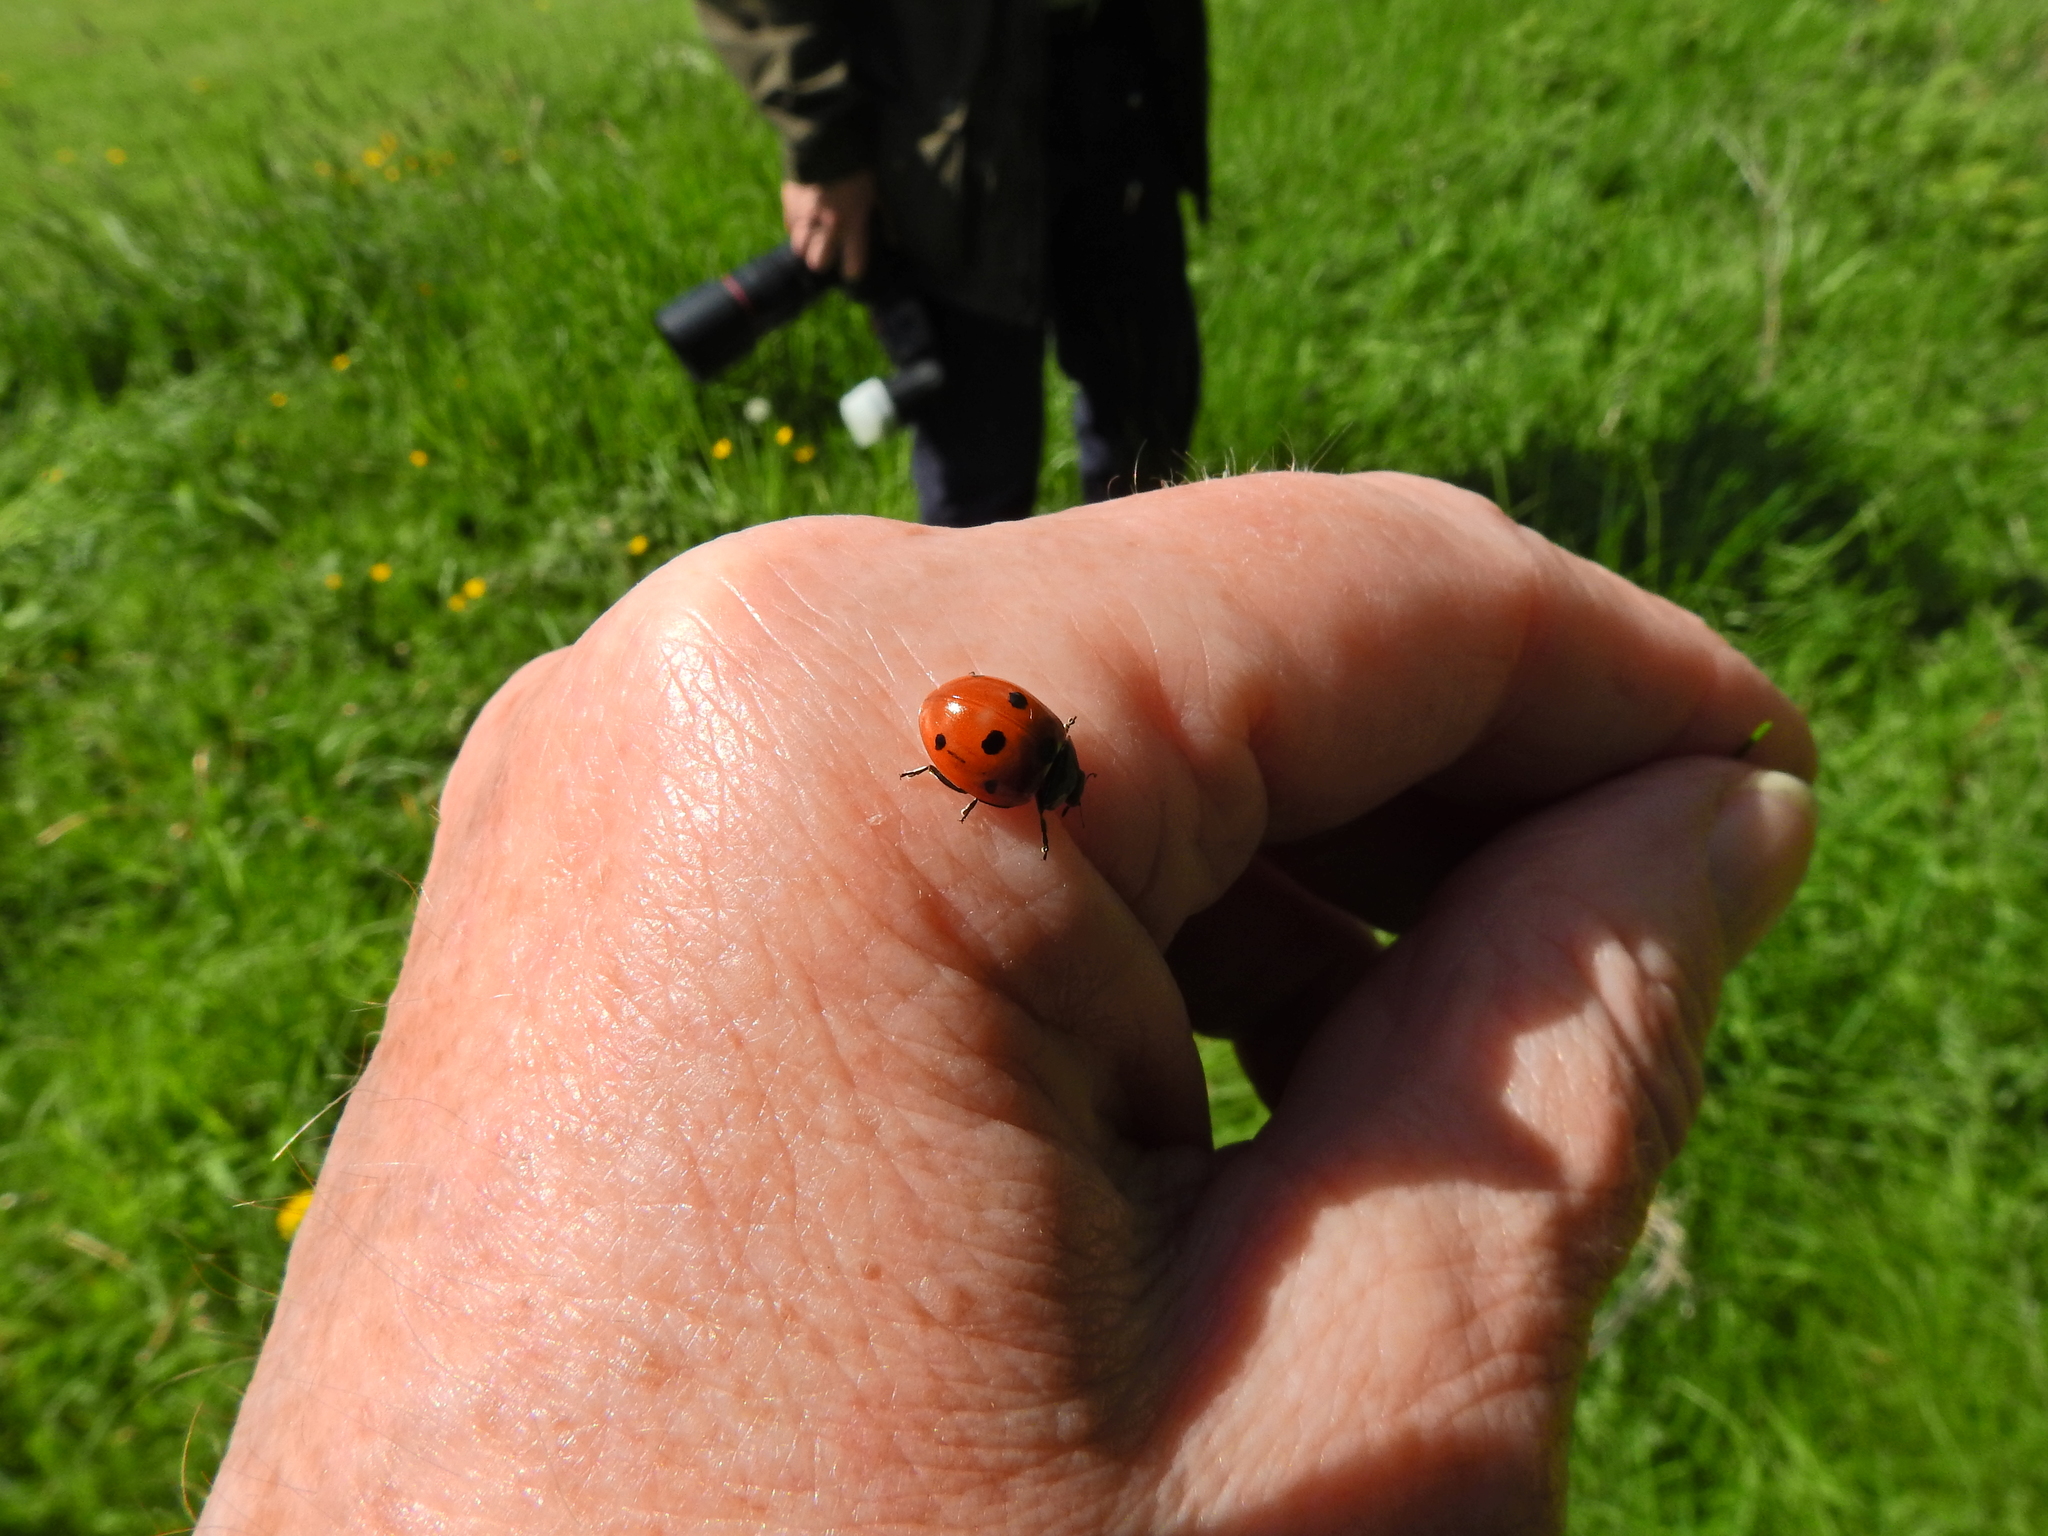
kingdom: Animalia
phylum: Arthropoda
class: Insecta
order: Coleoptera
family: Coccinellidae
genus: Coccinella
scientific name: Coccinella septempunctata
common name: Sevenspotted lady beetle
